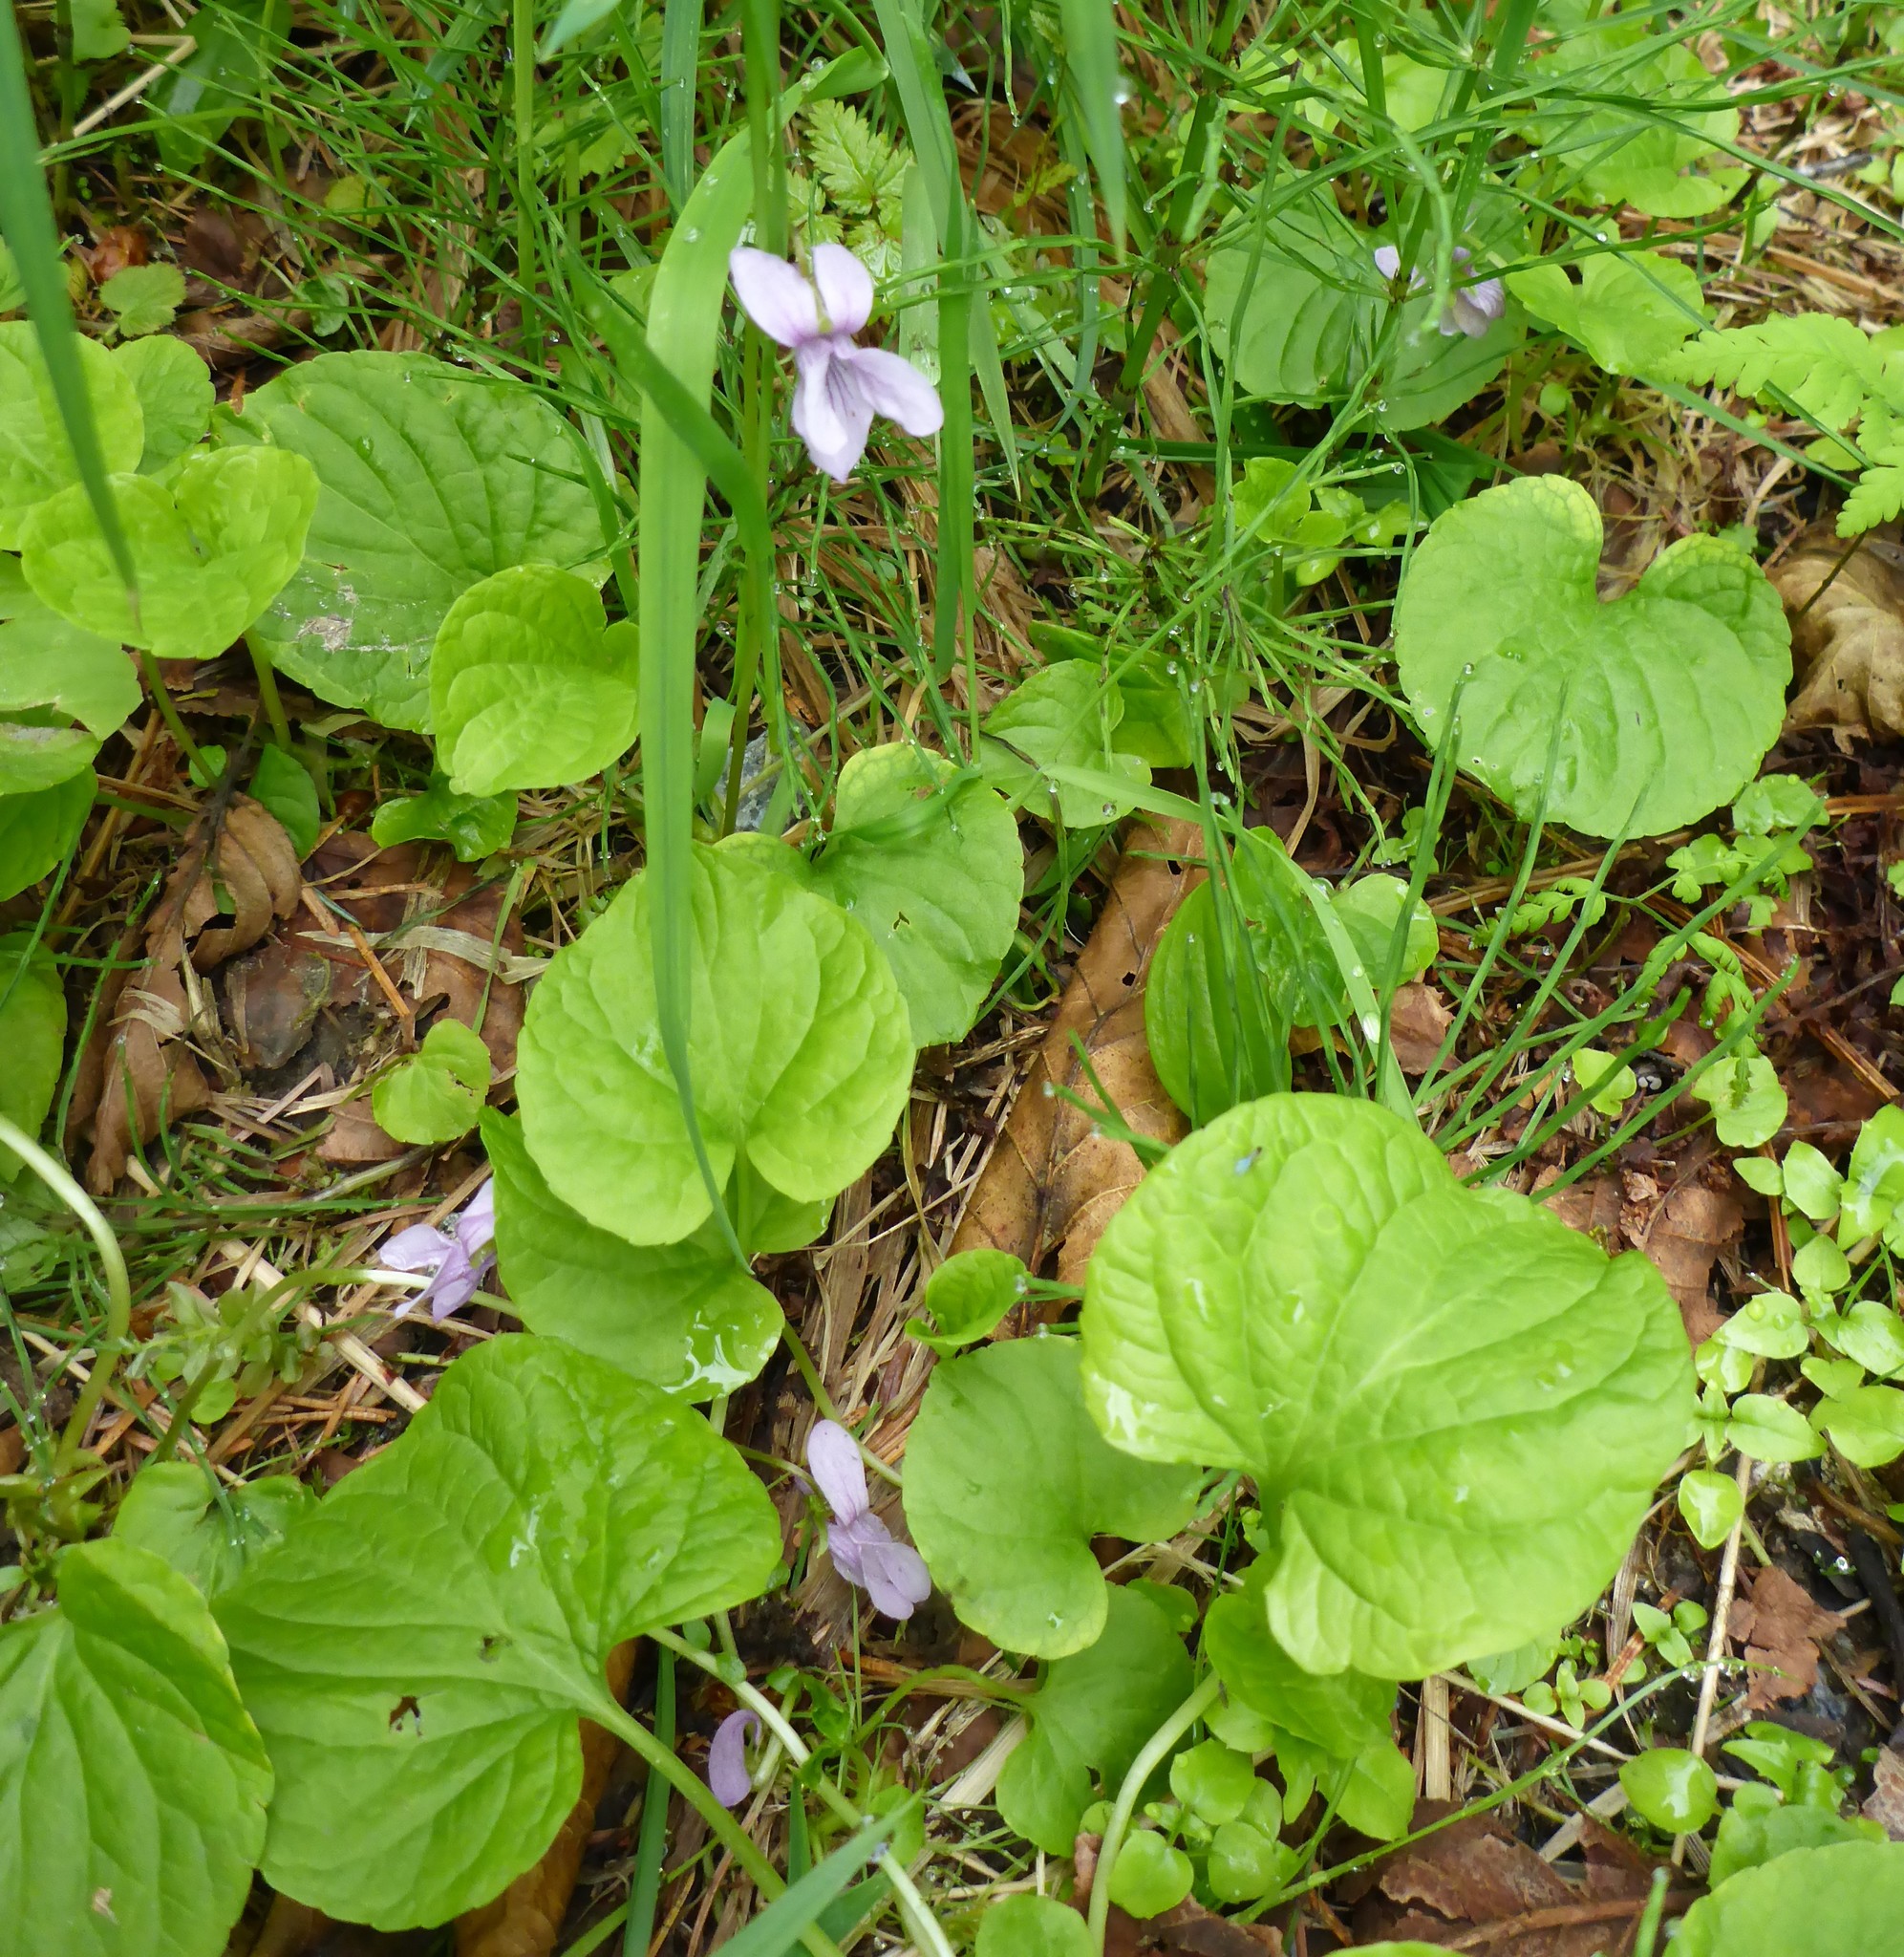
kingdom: Plantae
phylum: Tracheophyta
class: Magnoliopsida
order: Malpighiales
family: Violaceae
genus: Viola
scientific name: Viola epipsila
